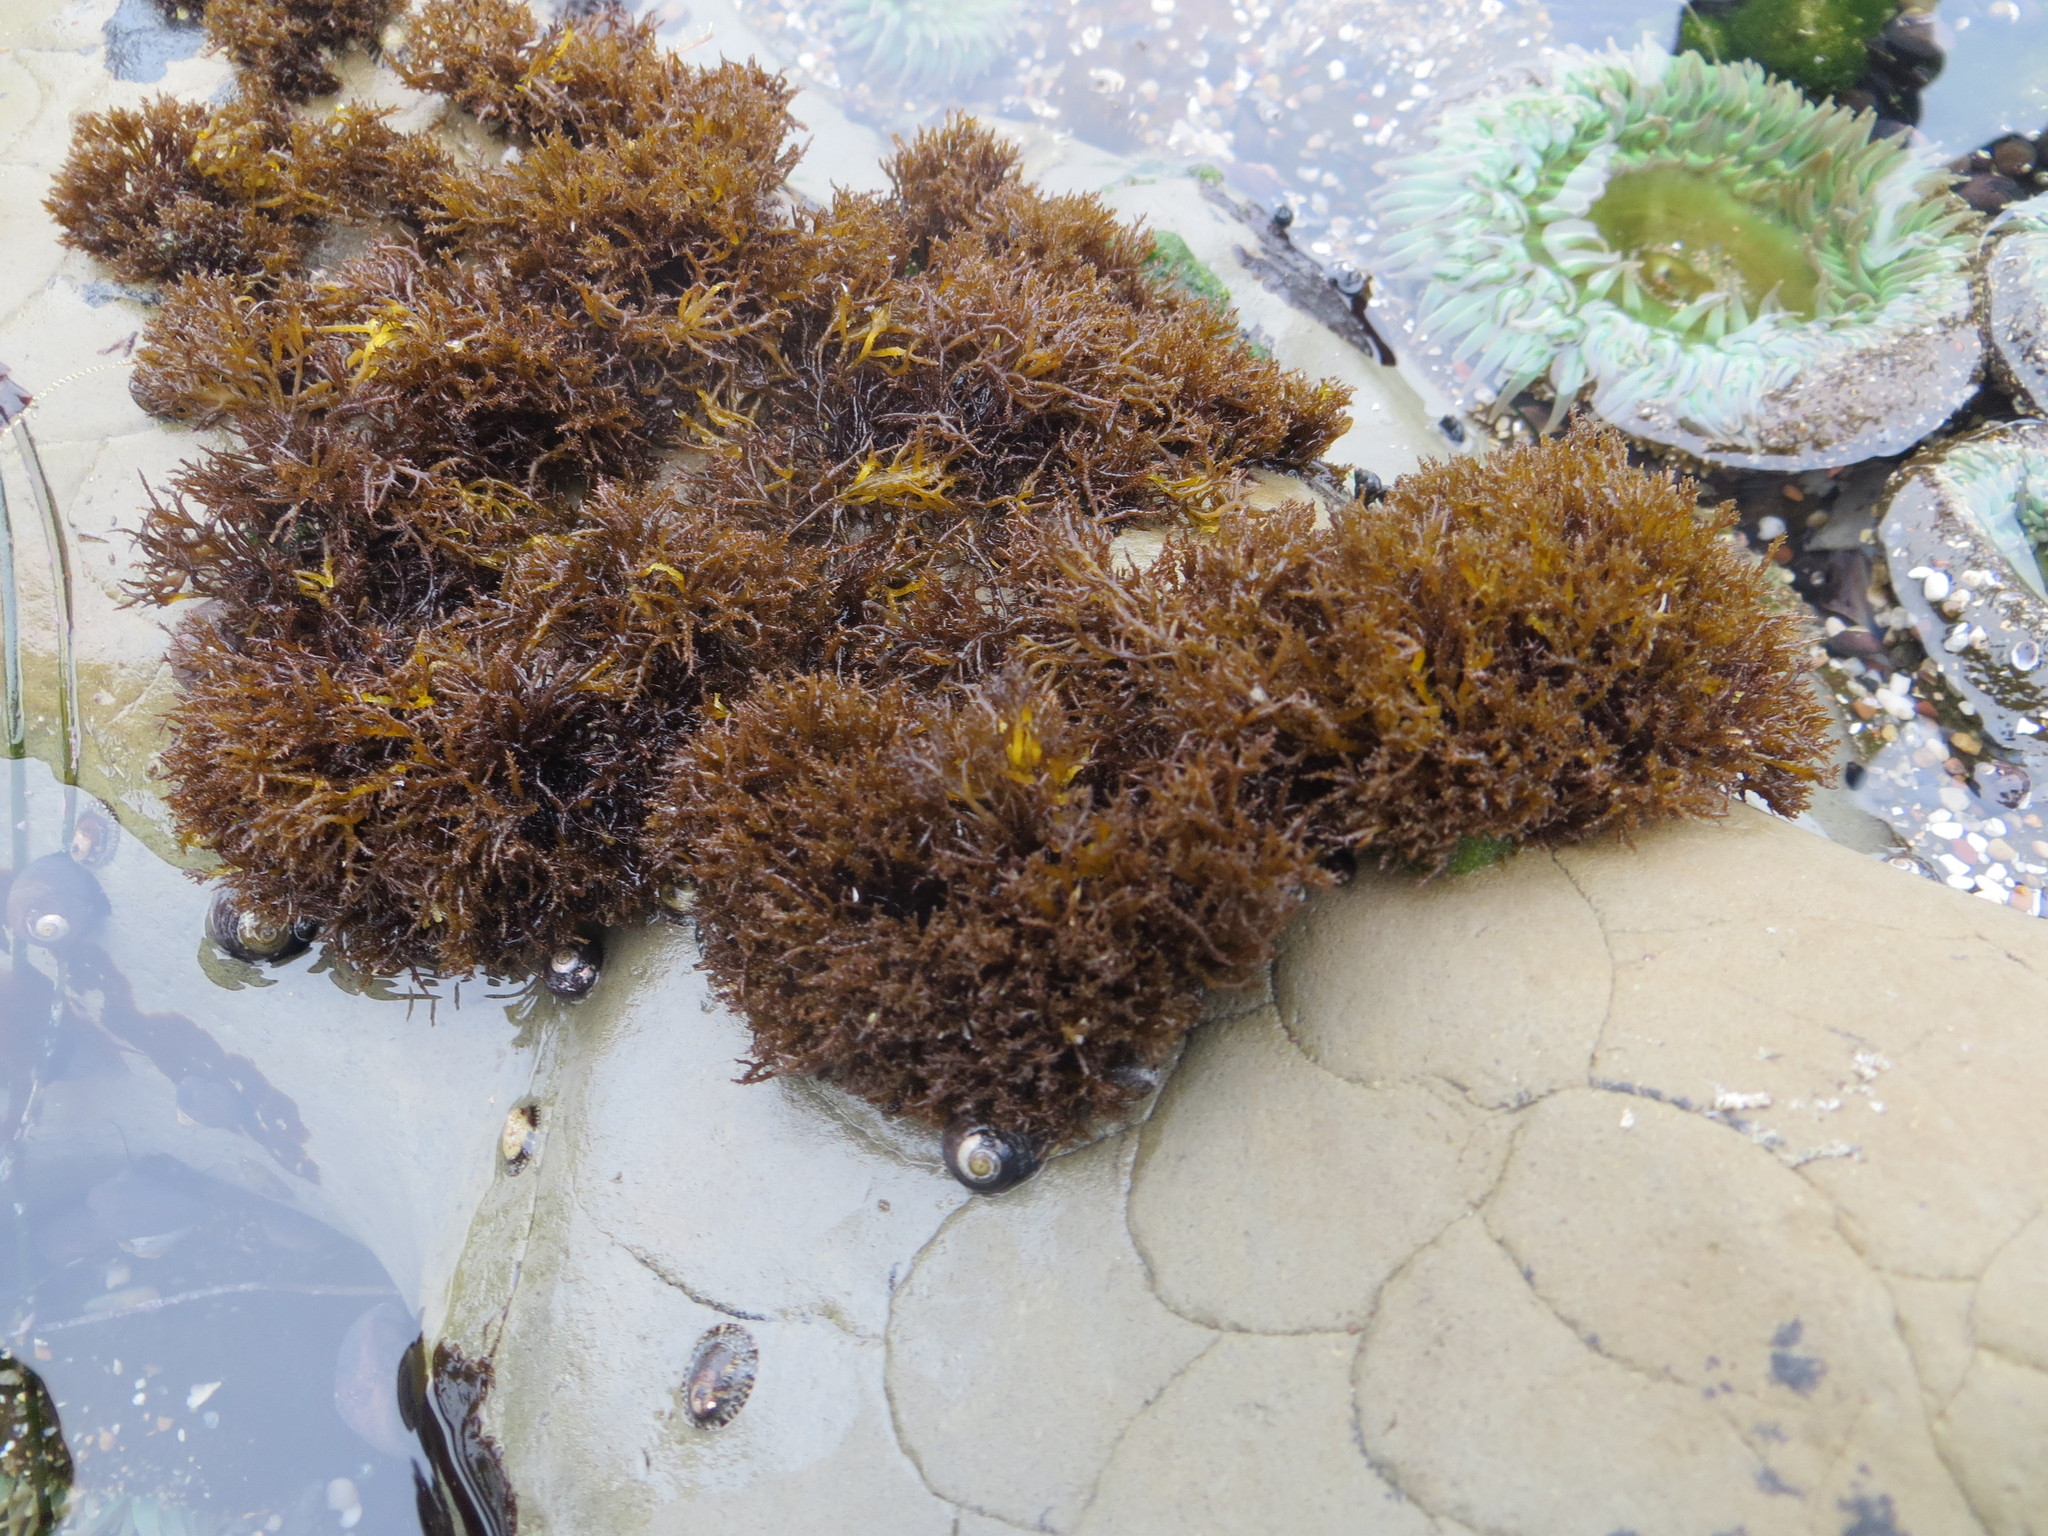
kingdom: Plantae
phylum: Rhodophyta
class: Florideophyceae
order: Gigartinales
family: Endocladiaceae
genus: Endocladia
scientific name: Endocladia muricata
